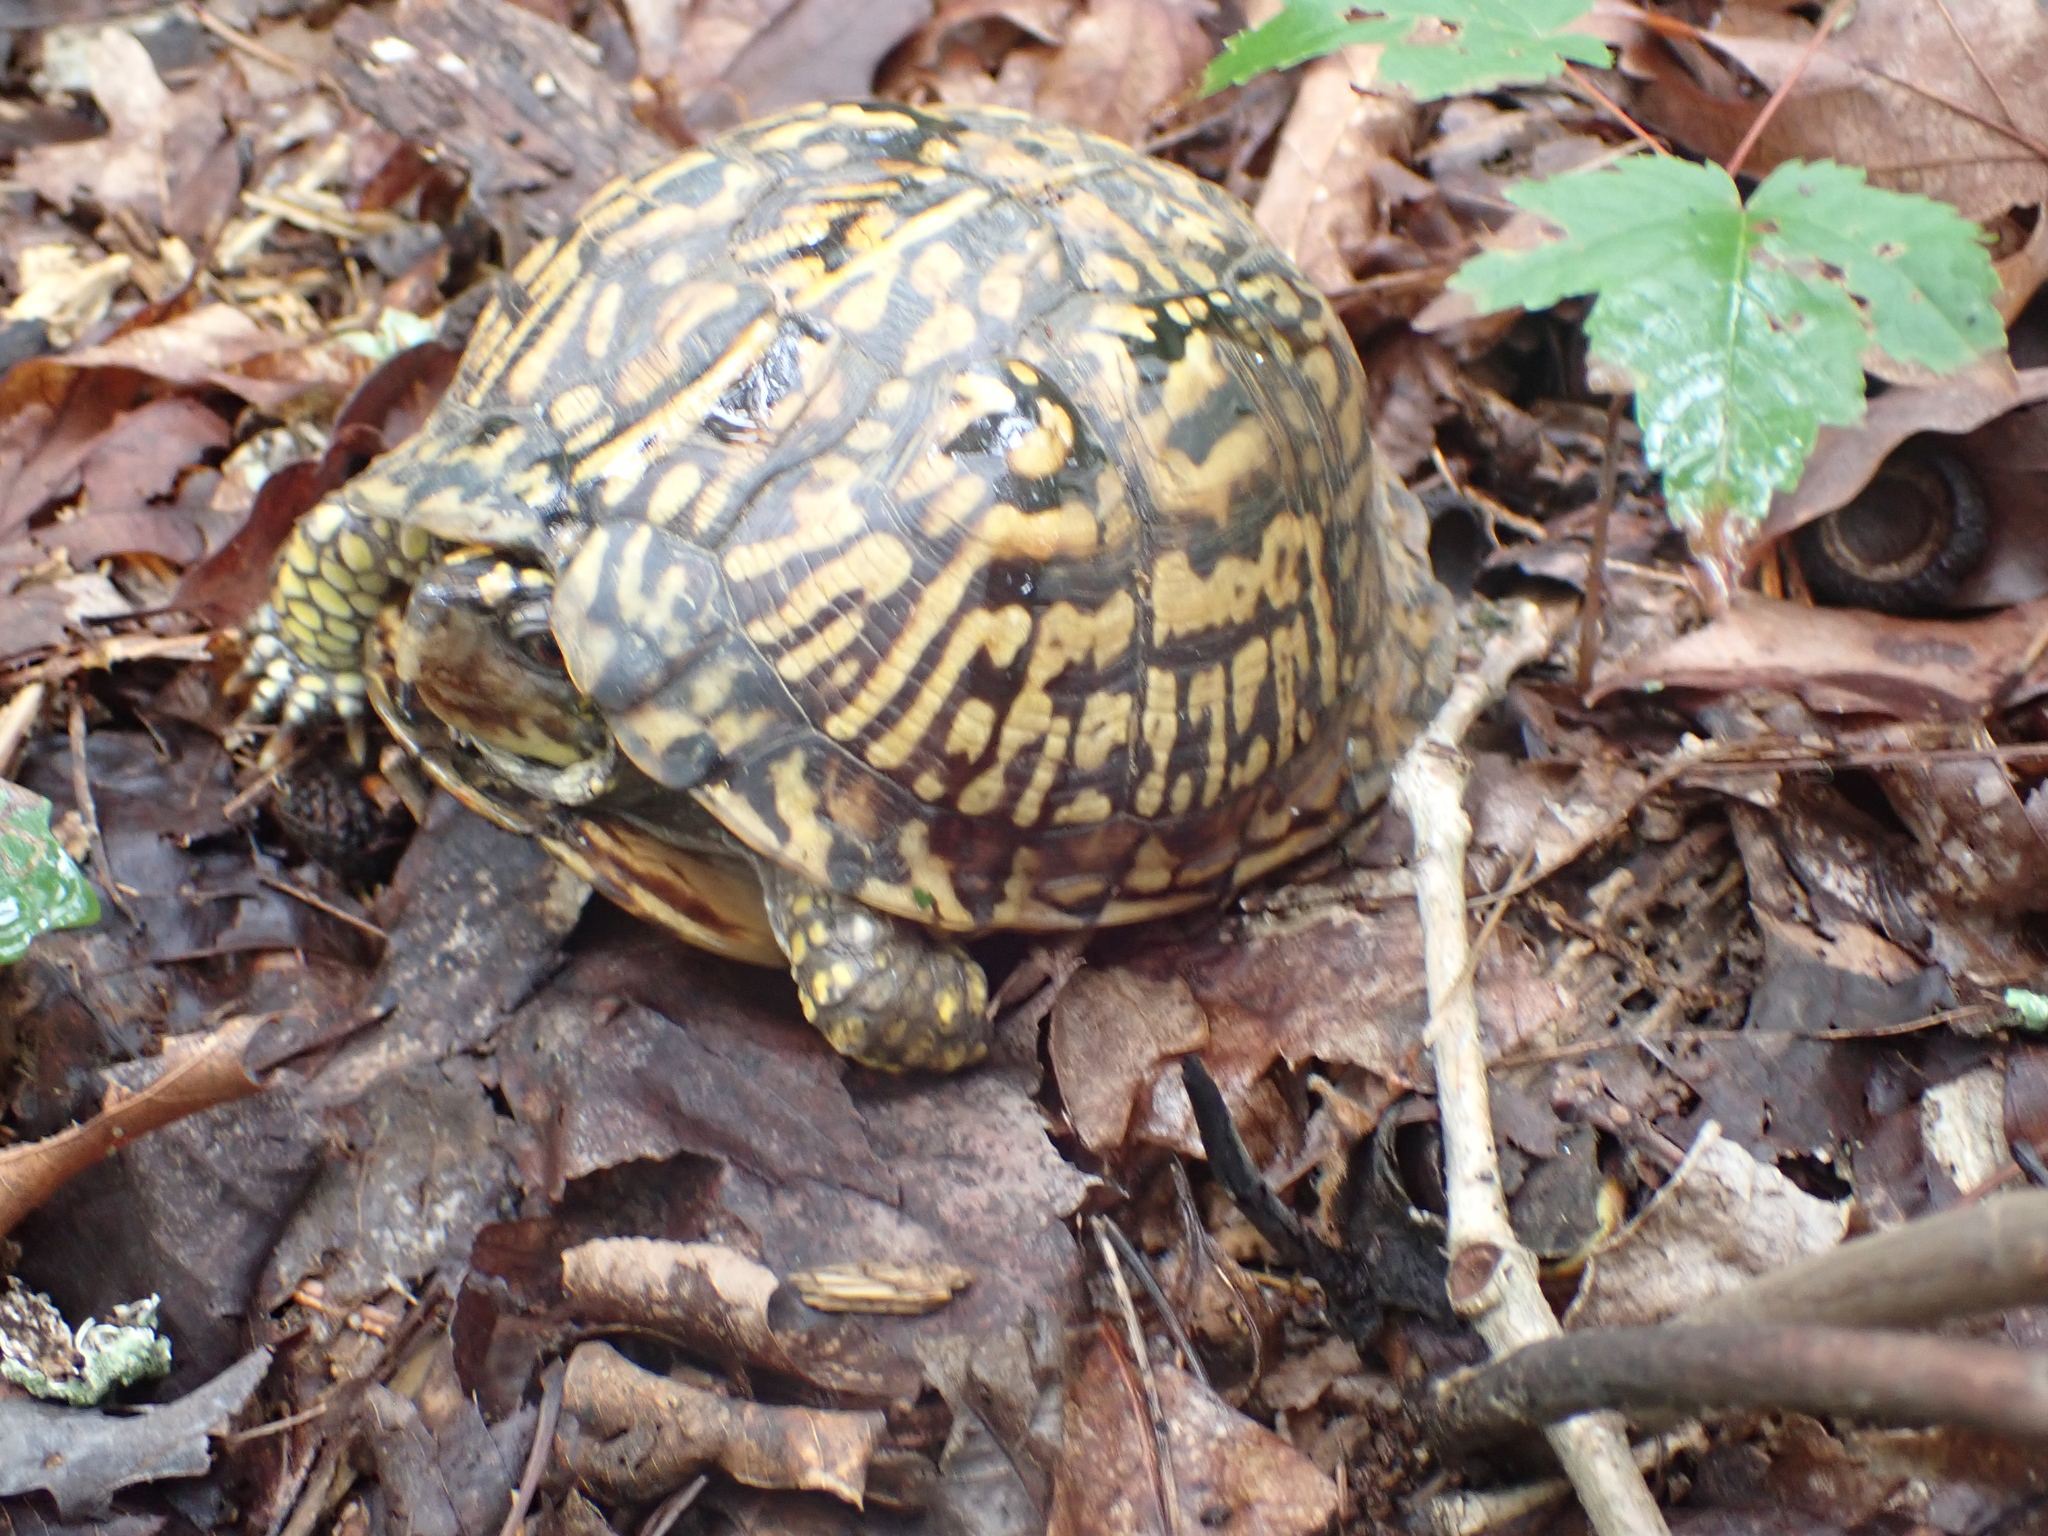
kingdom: Animalia
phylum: Chordata
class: Testudines
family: Emydidae
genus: Terrapene
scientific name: Terrapene carolina
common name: Common box turtle
